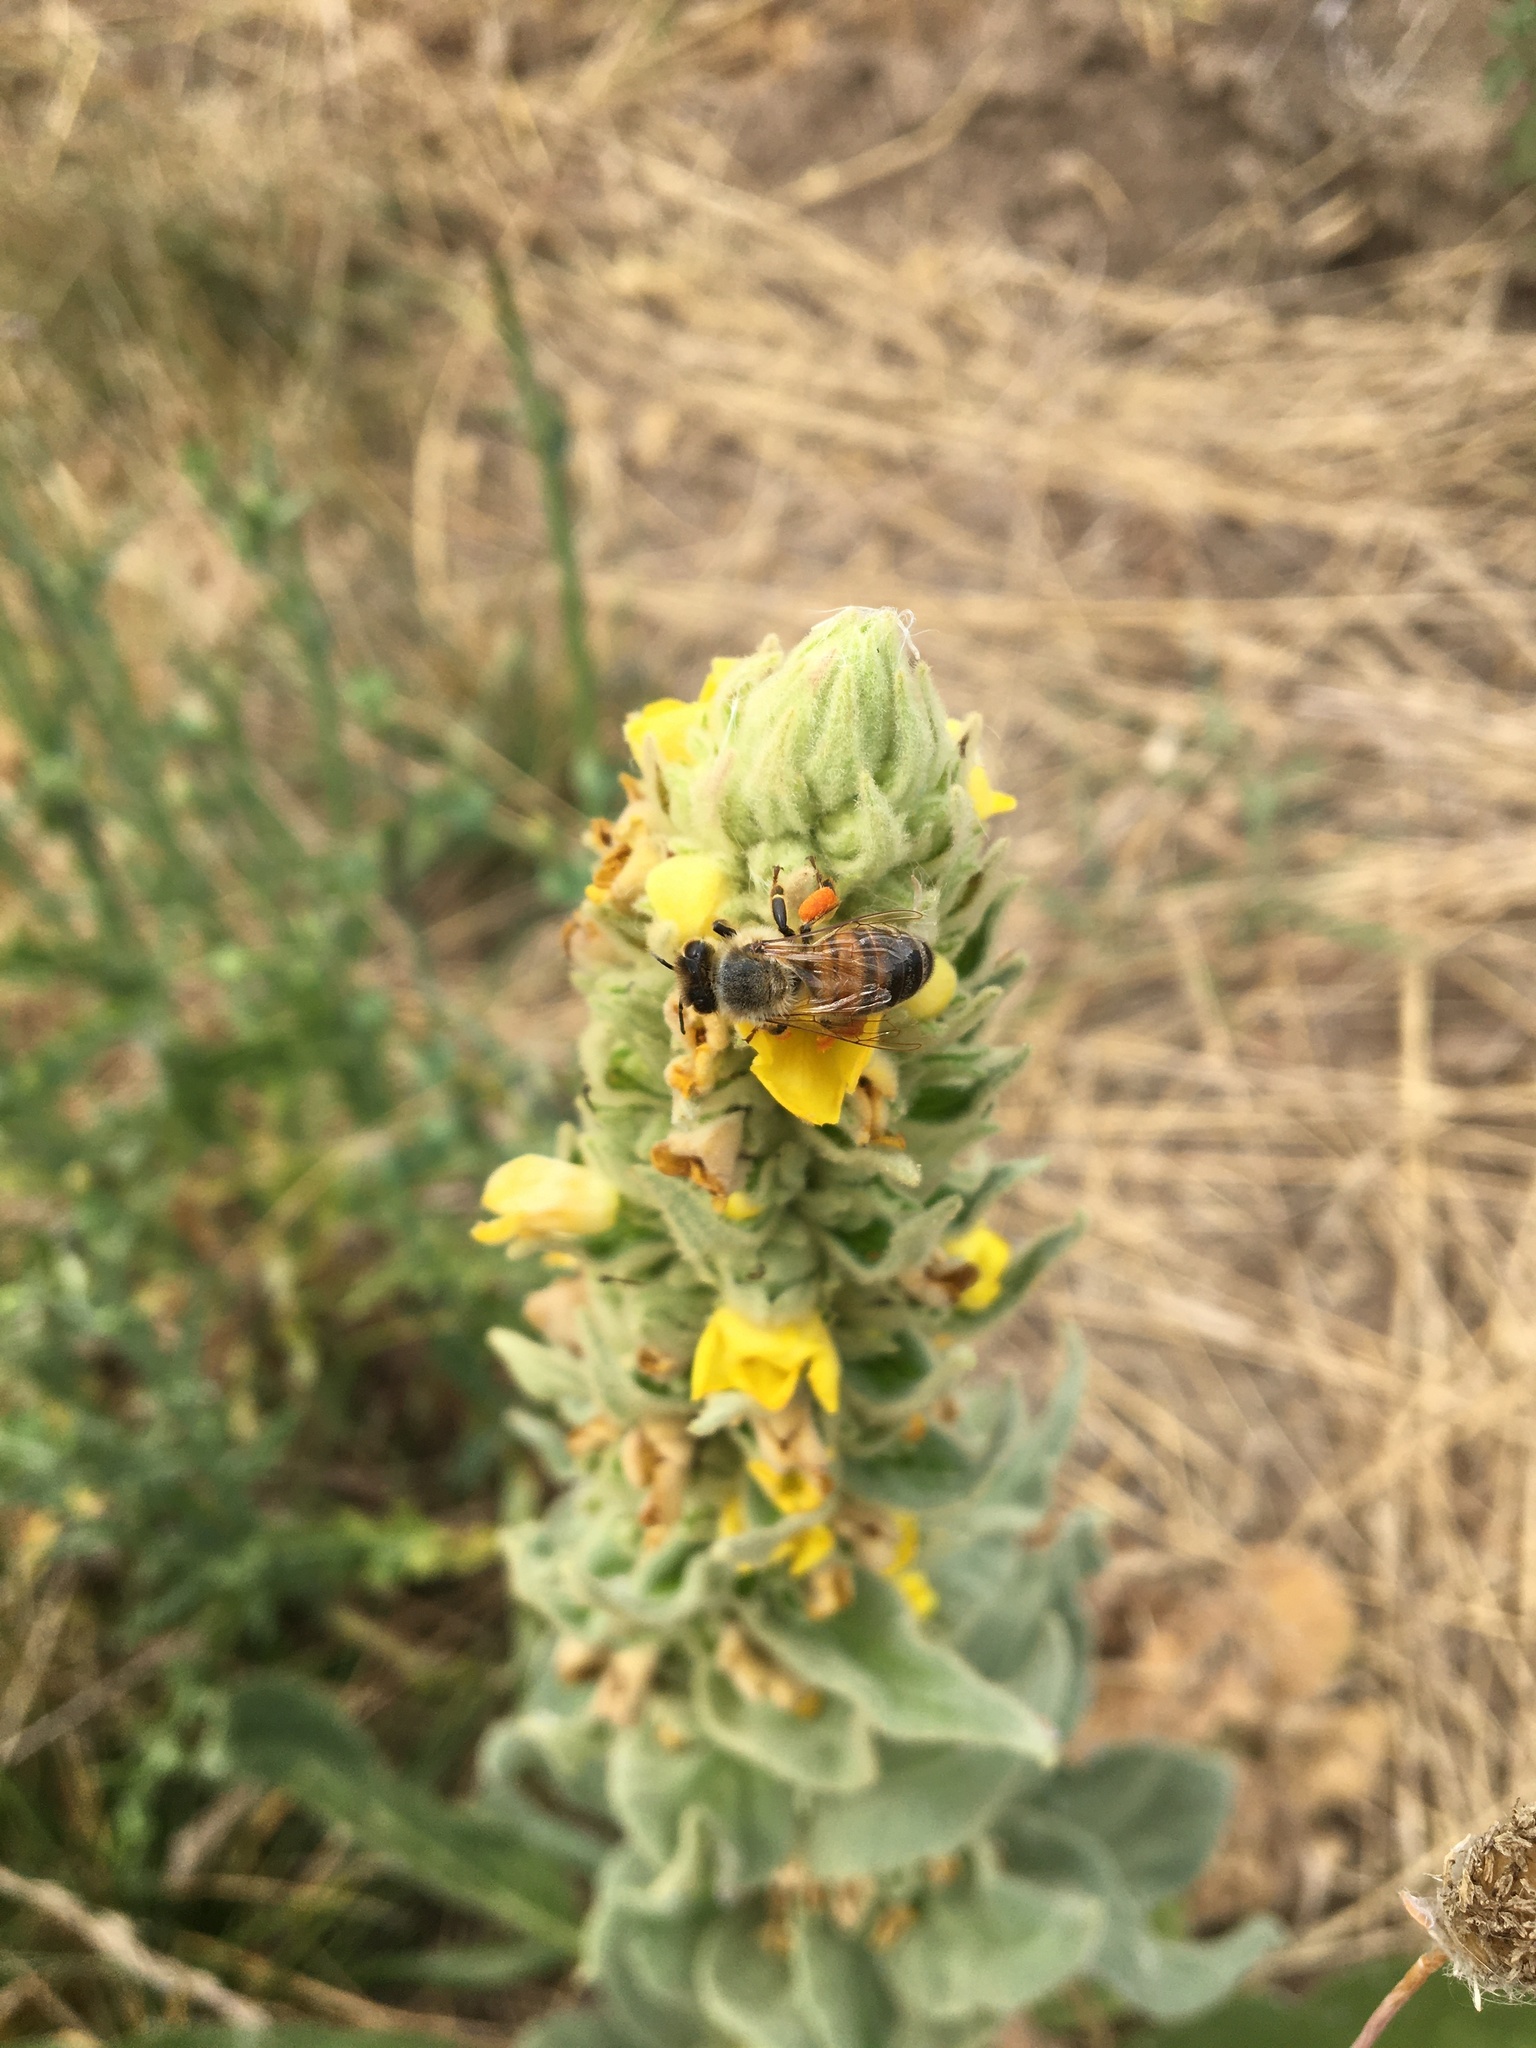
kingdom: Animalia
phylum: Arthropoda
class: Insecta
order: Hymenoptera
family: Apidae
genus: Apis
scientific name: Apis mellifera
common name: Honey bee
